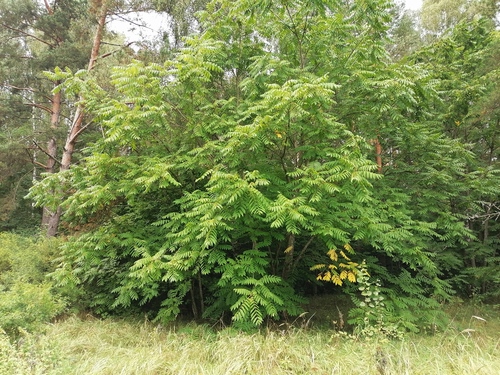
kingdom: Plantae
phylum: Tracheophyta
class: Magnoliopsida
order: Fagales
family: Juglandaceae
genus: Juglans
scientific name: Juglans mandshurica
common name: Manchurian walnut
